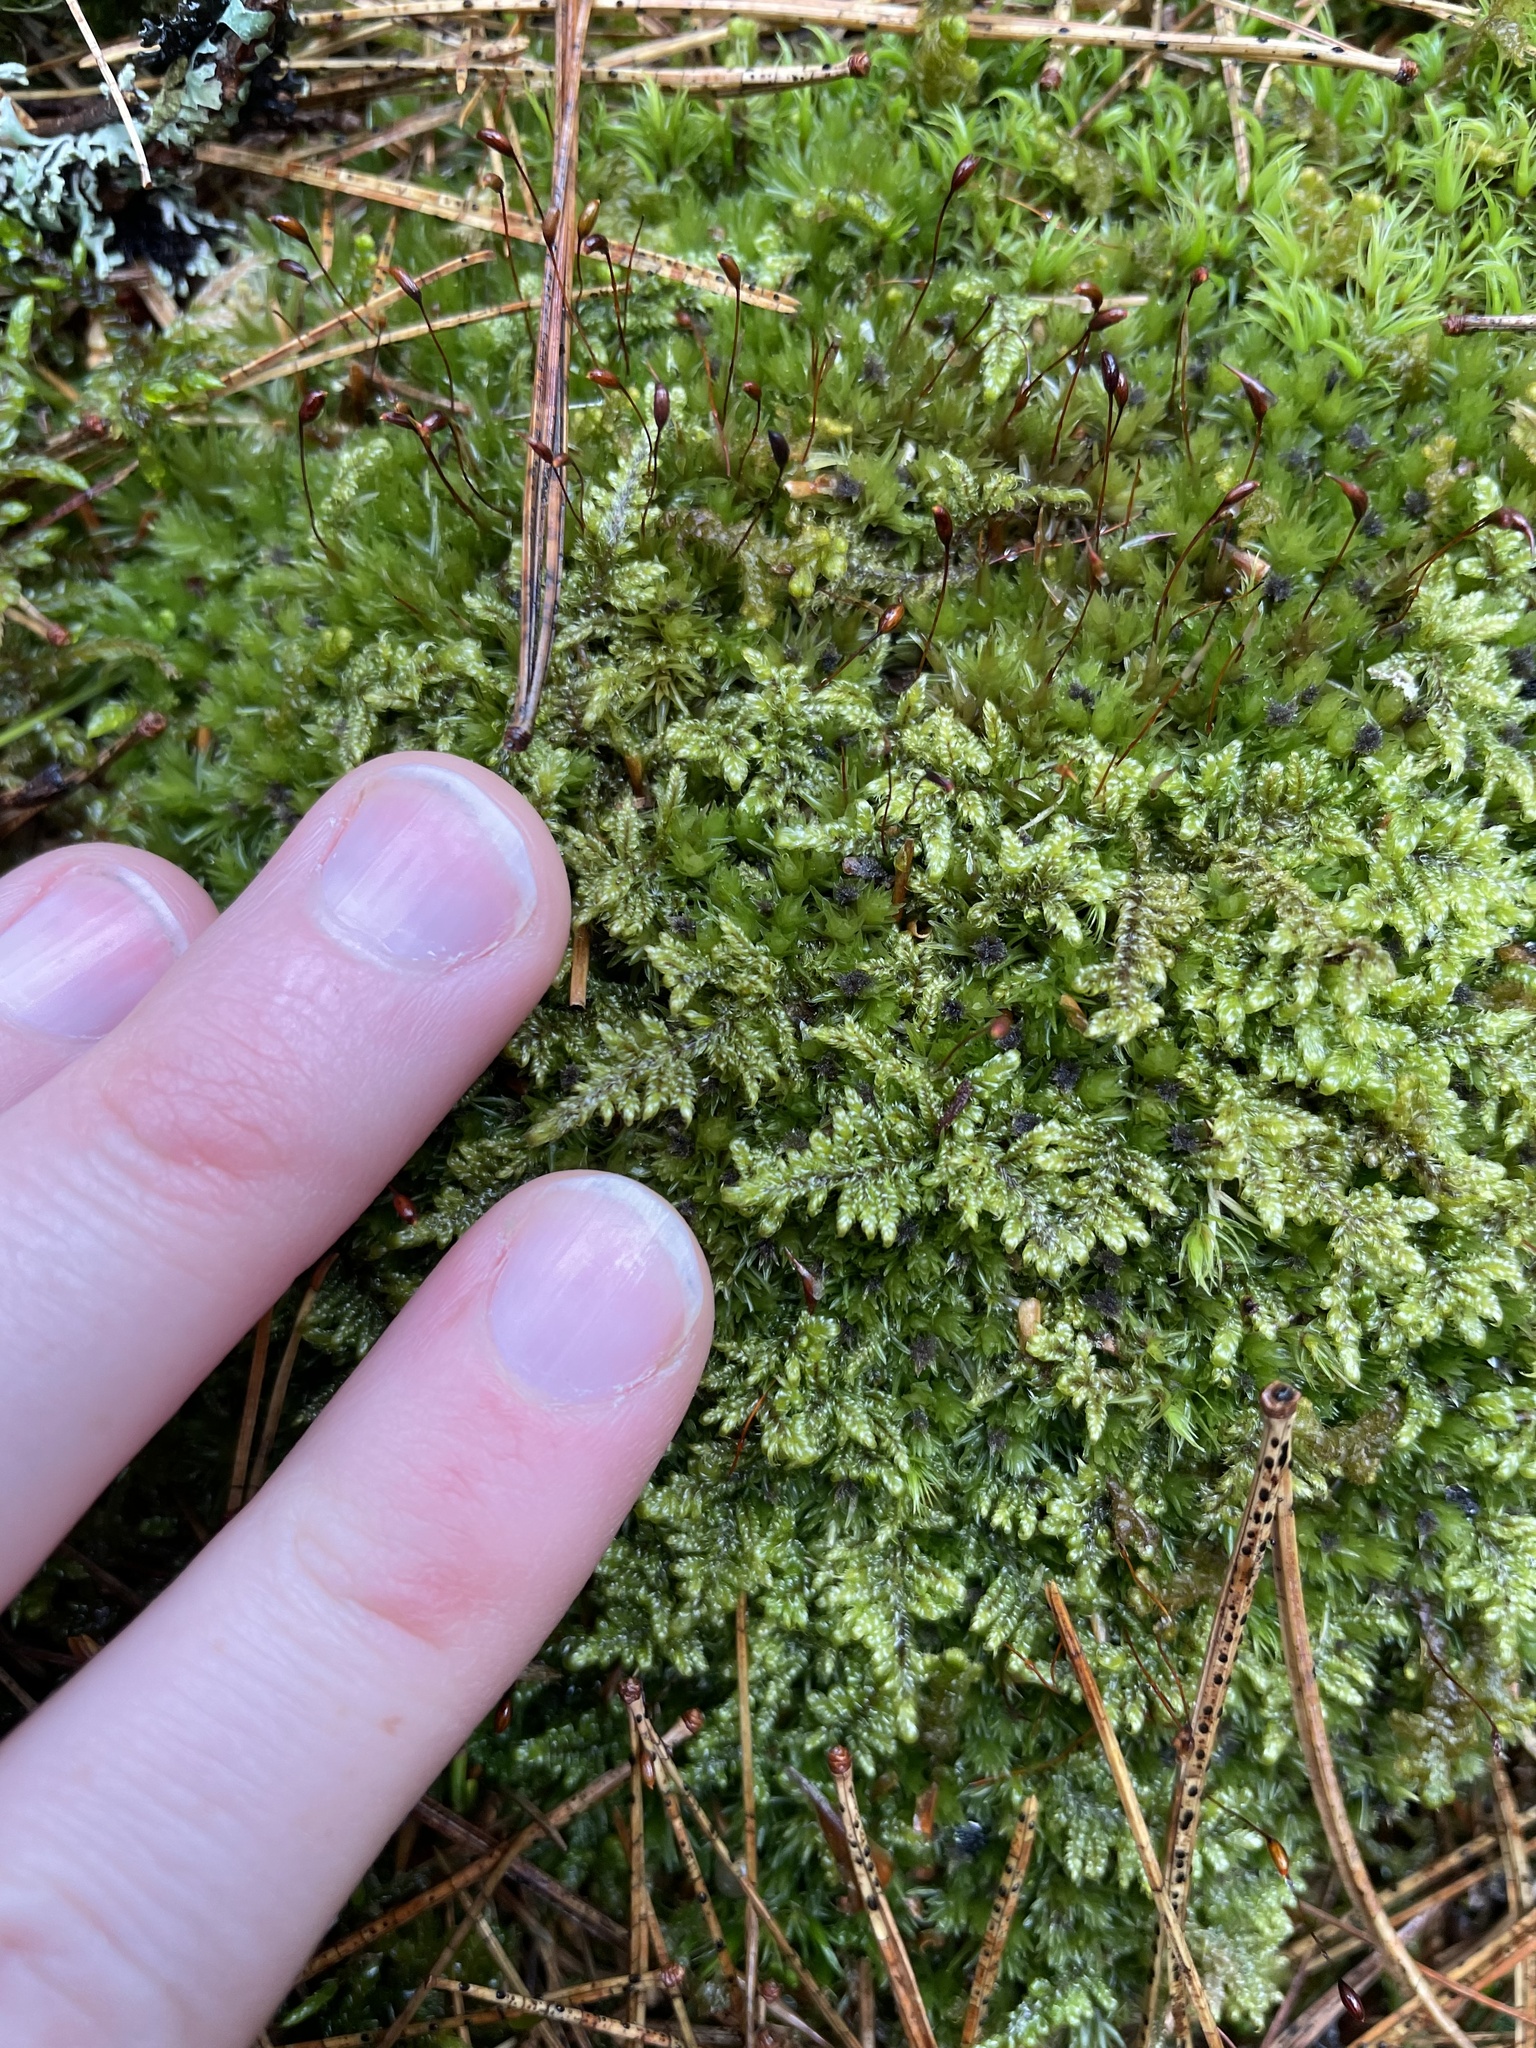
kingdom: Plantae
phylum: Bryophyta
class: Bryopsida
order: Hypnales
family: Callicladiaceae
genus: Callicladium
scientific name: Callicladium imponens
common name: Brocade moss
